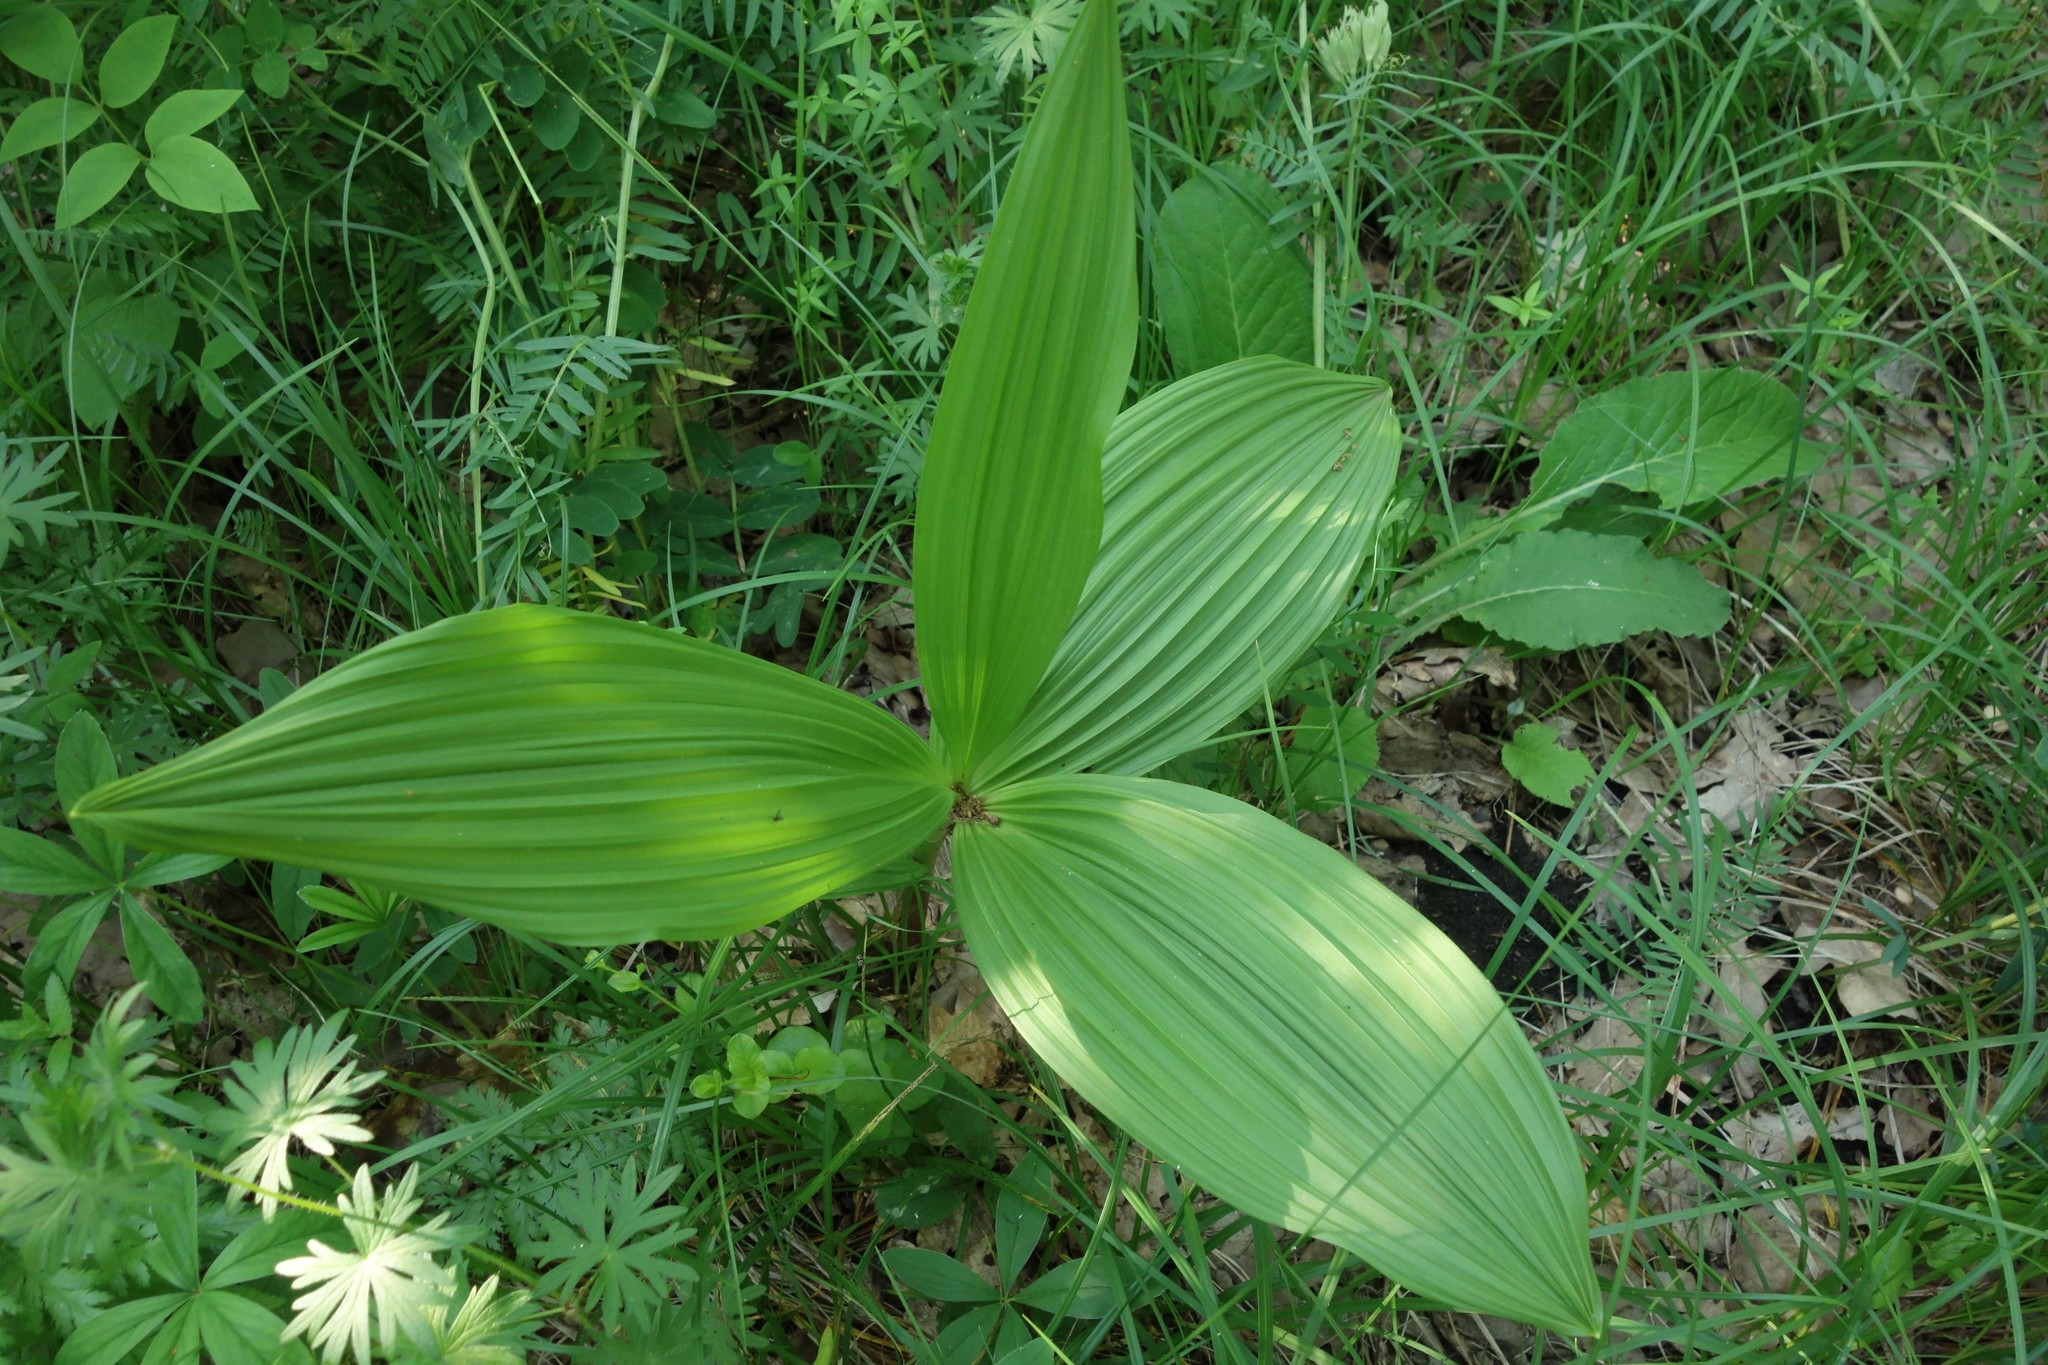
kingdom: Plantae
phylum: Tracheophyta
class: Liliopsida
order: Liliales
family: Melanthiaceae
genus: Veratrum
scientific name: Veratrum nigrum
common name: Black veratrum
